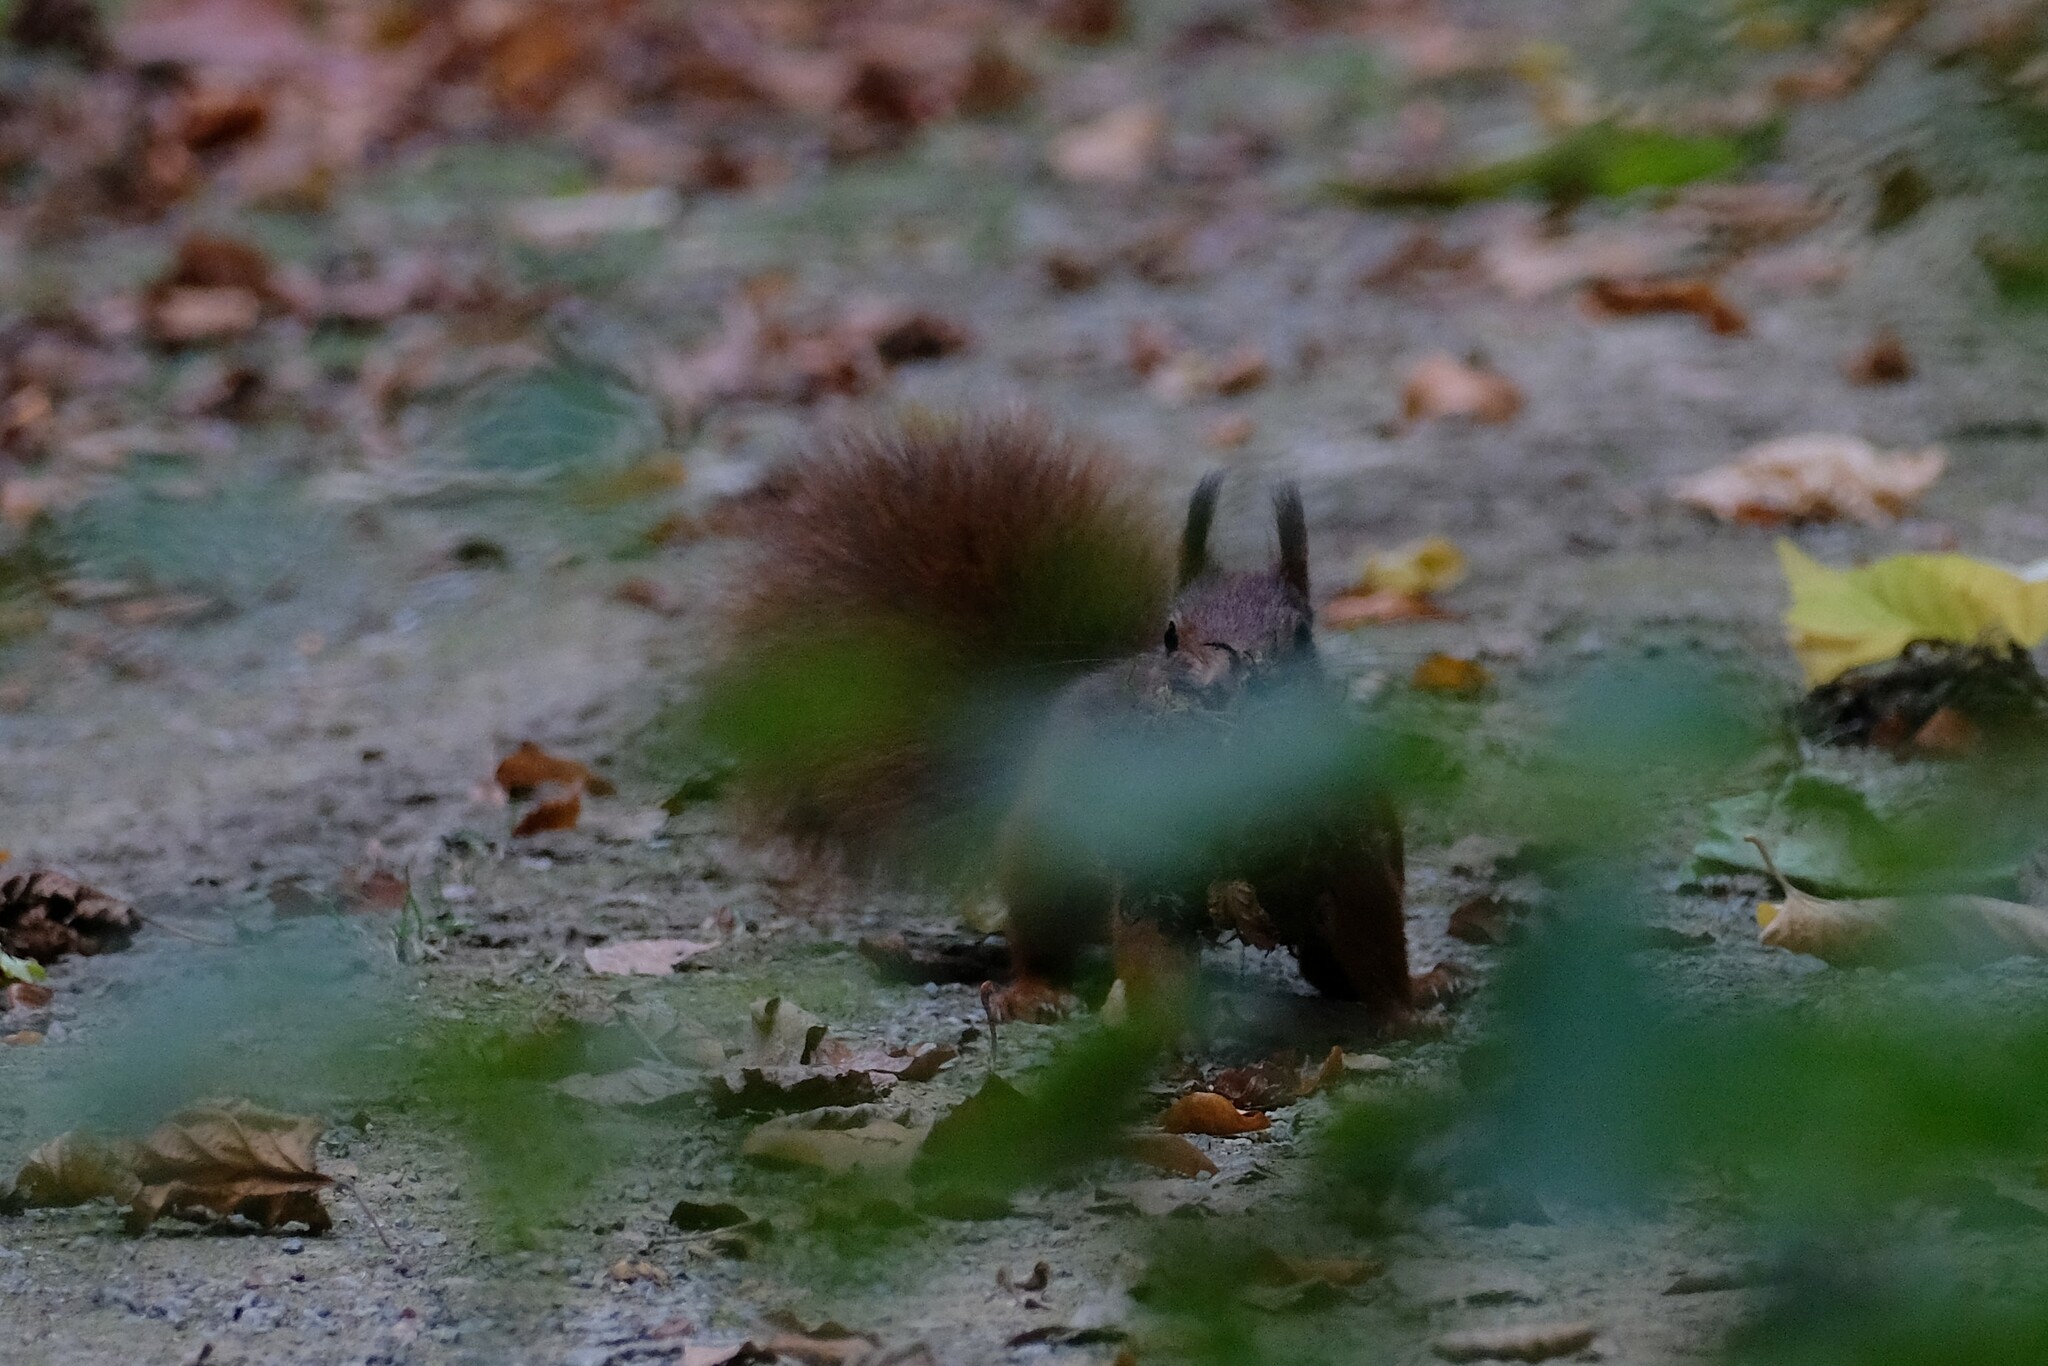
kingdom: Animalia
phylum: Chordata
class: Mammalia
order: Rodentia
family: Sciuridae
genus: Sciurus
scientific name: Sciurus vulgaris
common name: Eurasian red squirrel
